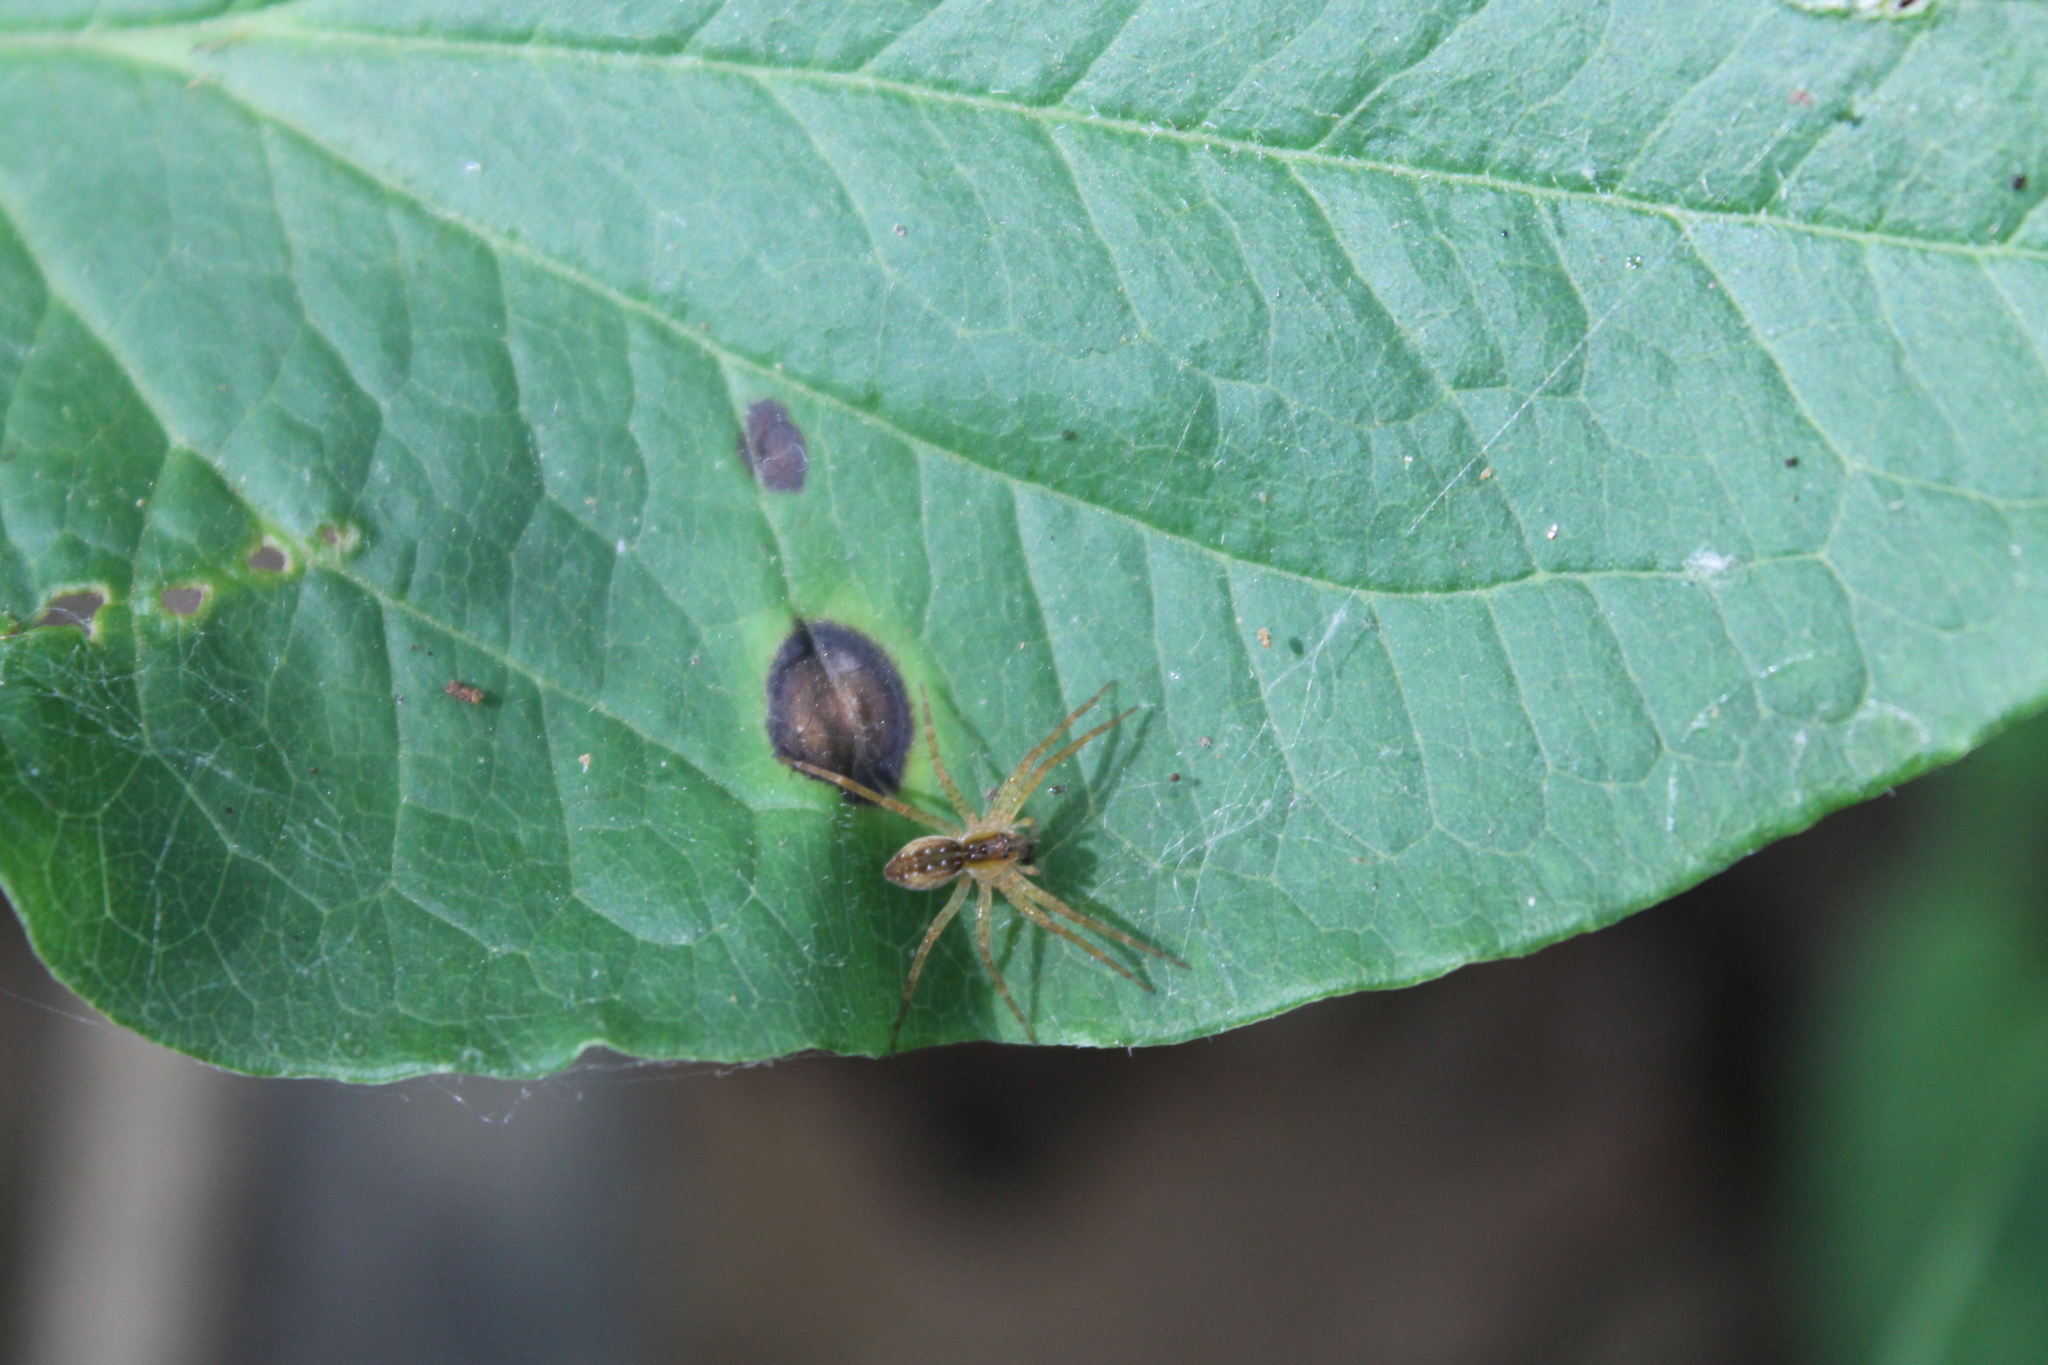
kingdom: Animalia
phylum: Arthropoda
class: Arachnida
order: Araneae
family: Pisauridae
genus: Dolomedes
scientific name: Dolomedes triton
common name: Six-spotted fishing spider
